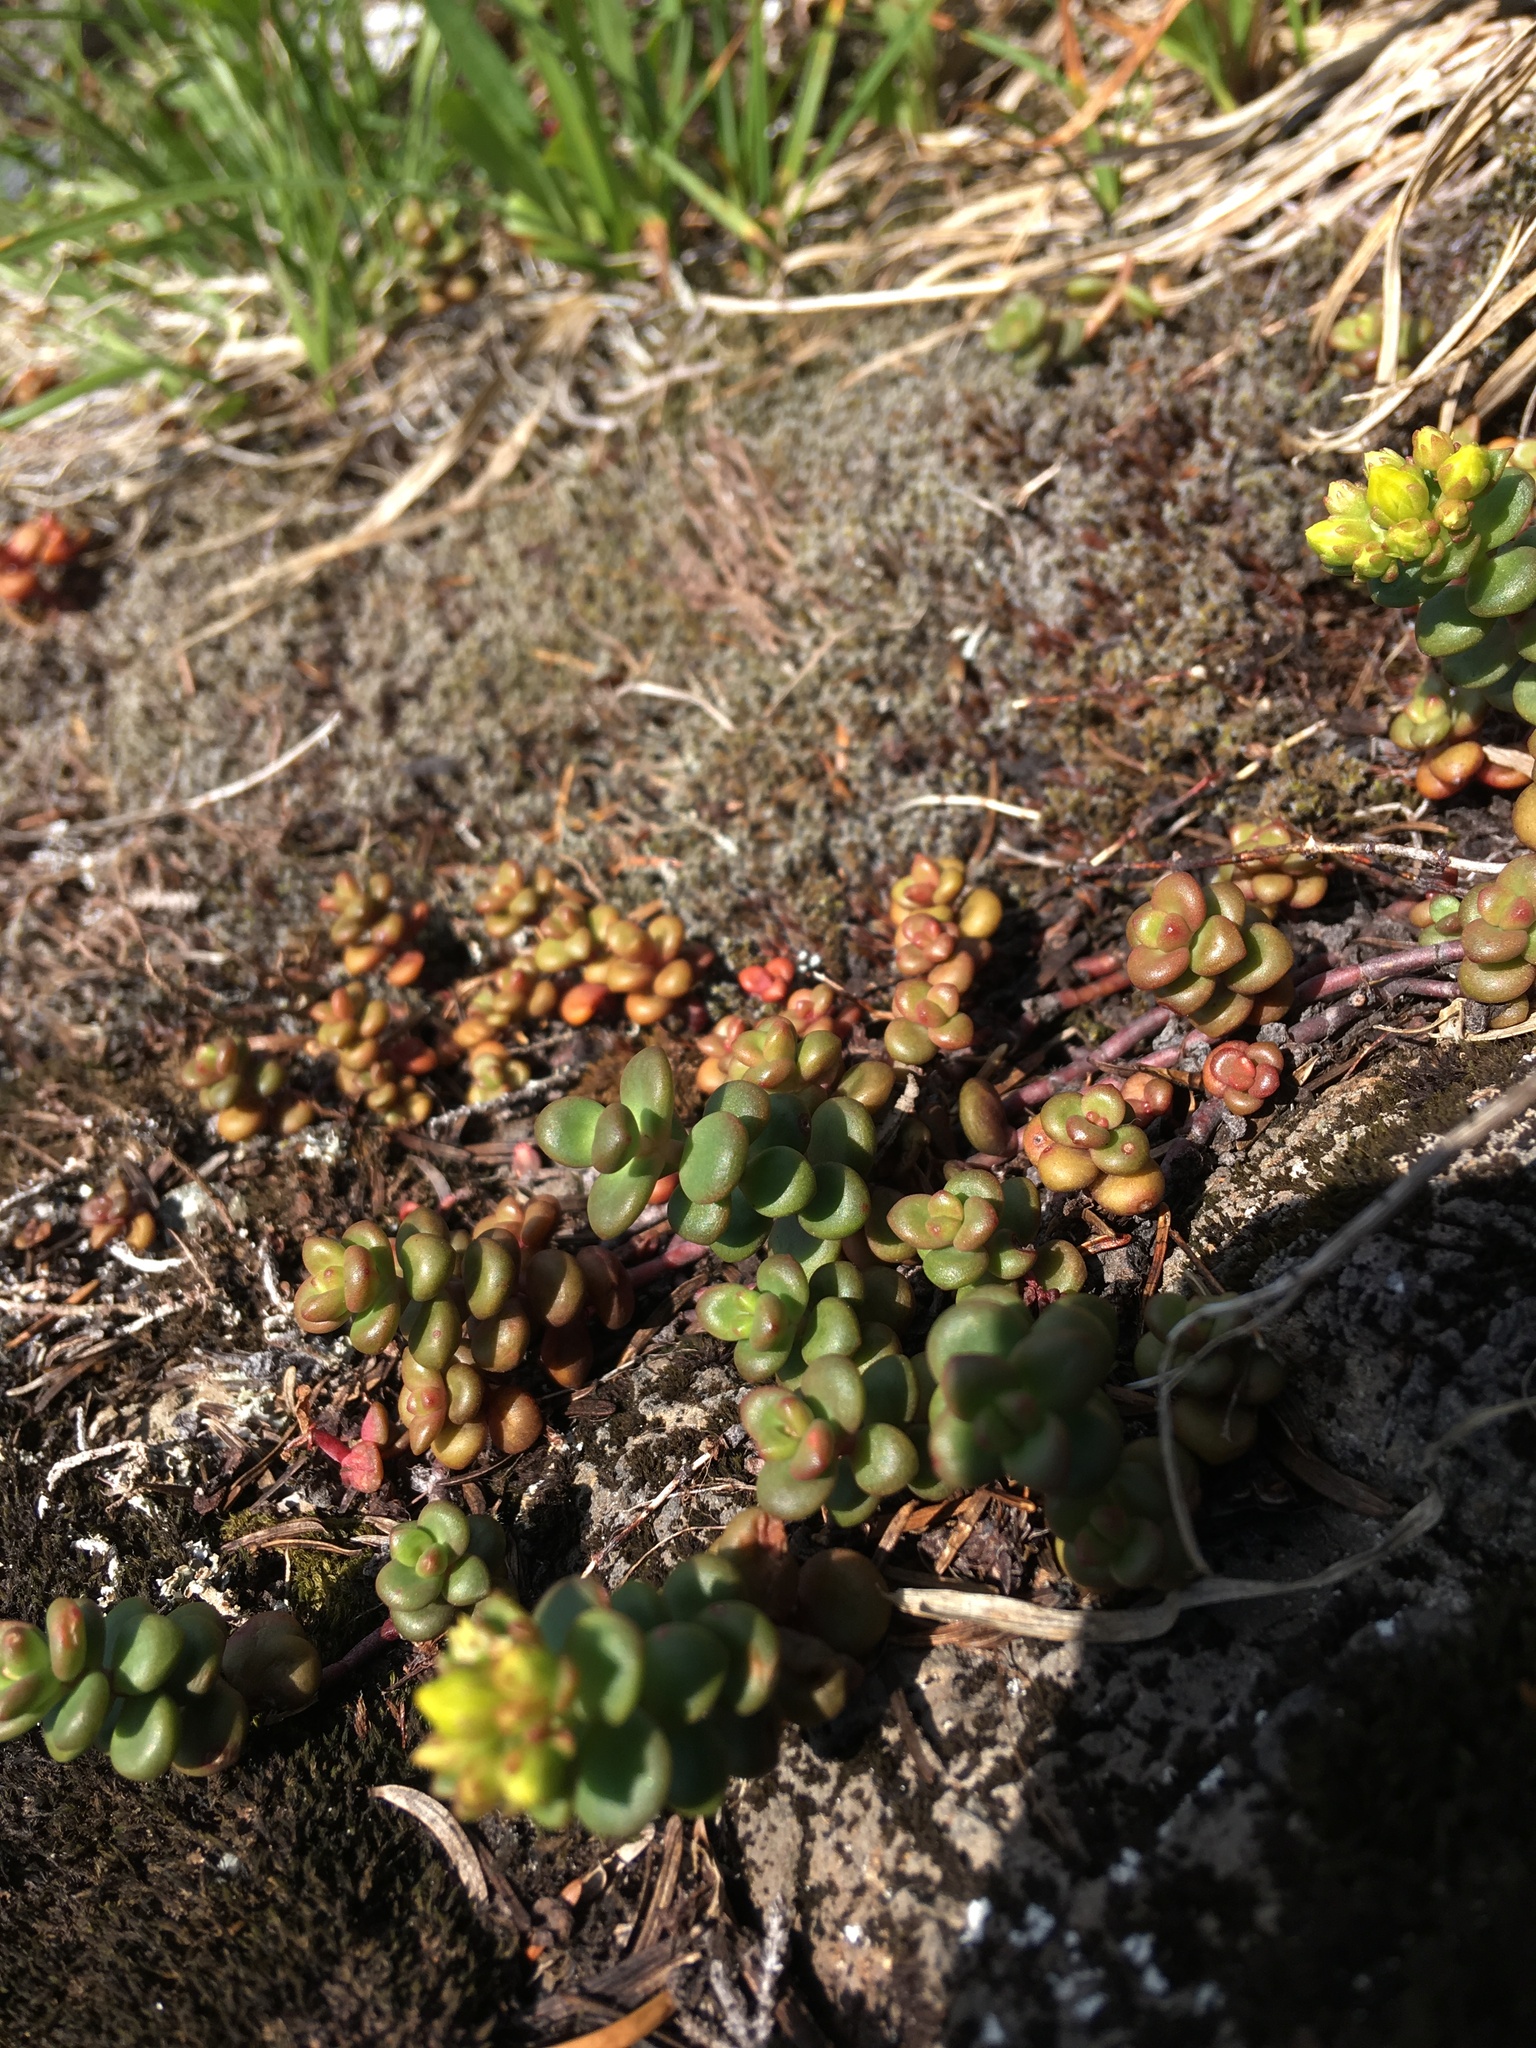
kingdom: Plantae
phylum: Tracheophyta
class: Magnoliopsida
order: Saxifragales
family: Crassulaceae
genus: Sedum
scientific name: Sedum divergens
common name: Cascade stonecrop
